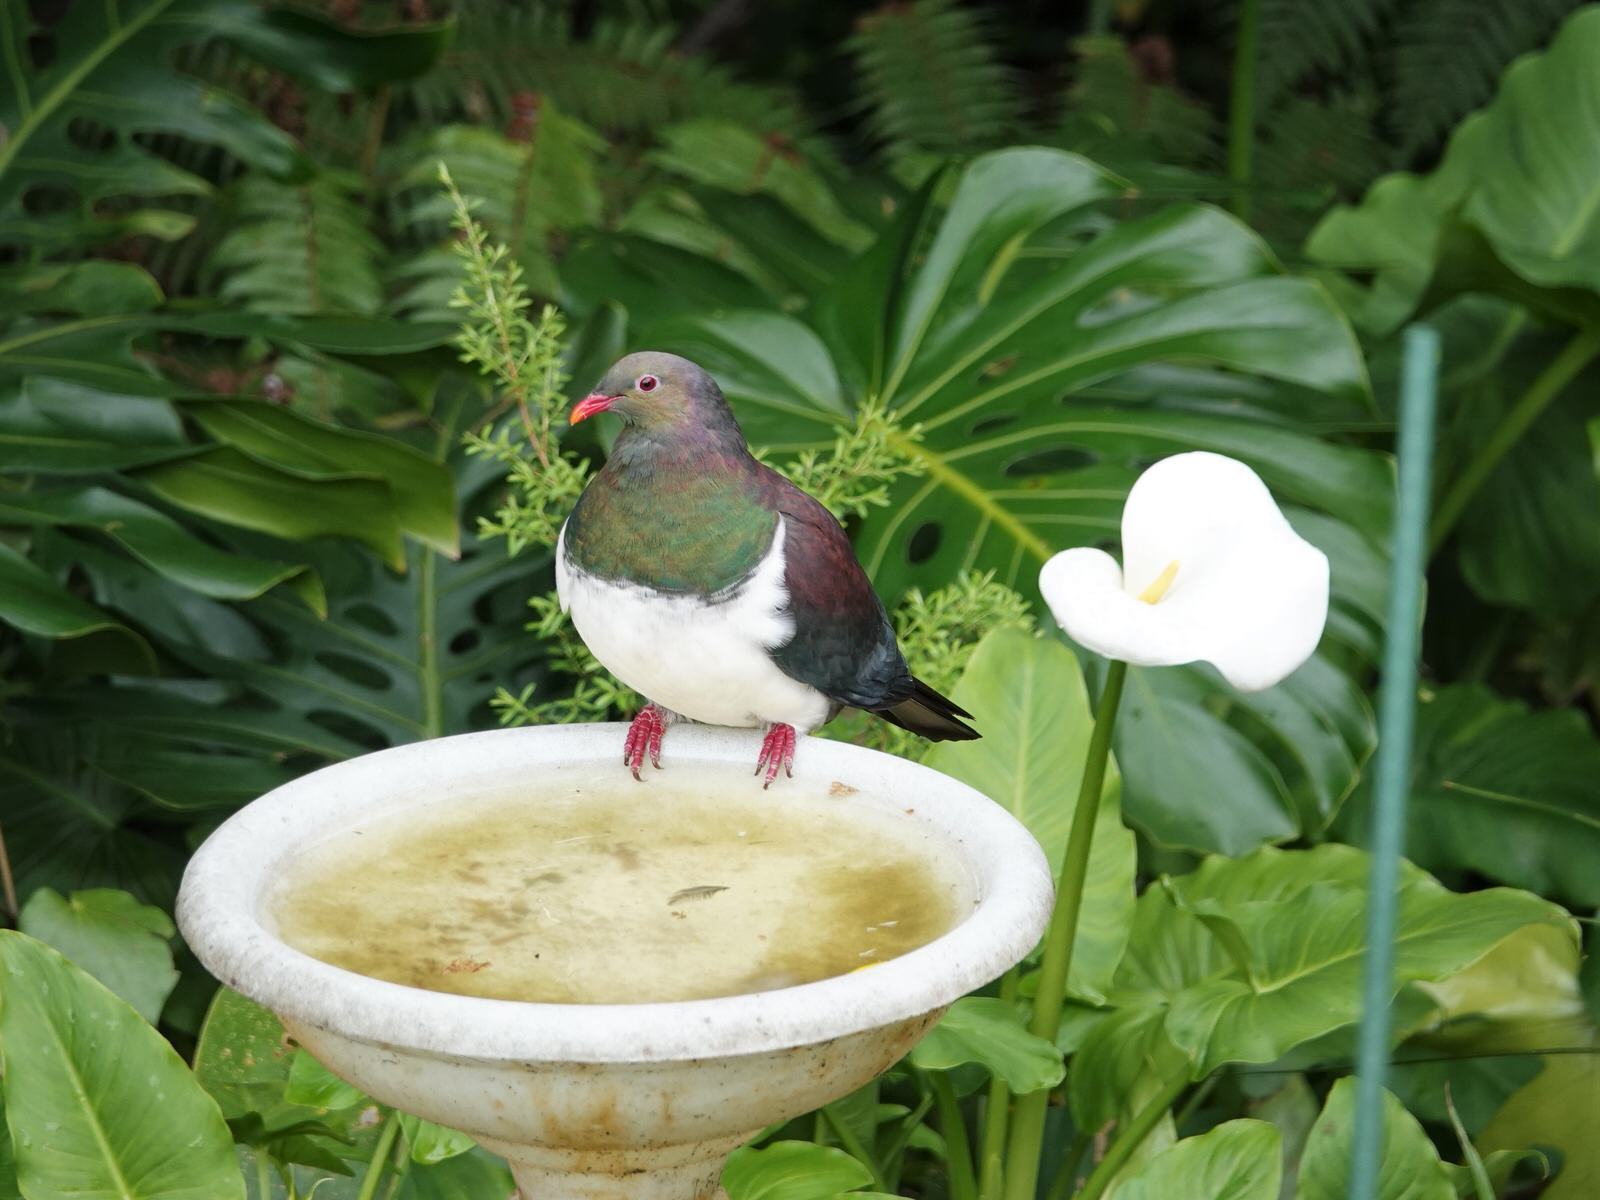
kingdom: Animalia
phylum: Chordata
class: Aves
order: Columbiformes
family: Columbidae
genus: Hemiphaga
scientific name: Hemiphaga novaeseelandiae
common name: New zealand pigeon
